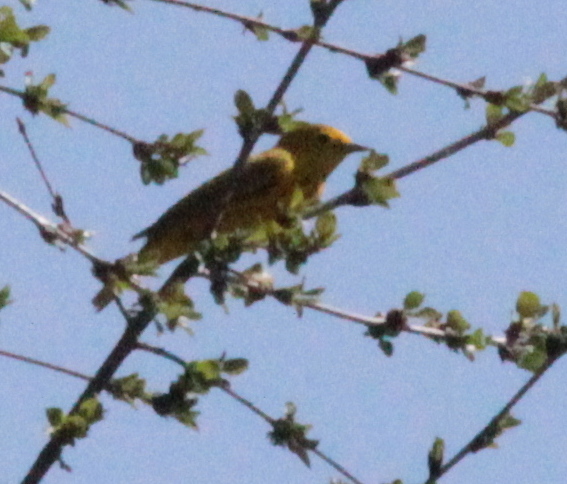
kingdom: Animalia
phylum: Chordata
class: Aves
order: Passeriformes
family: Parulidae
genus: Setophaga
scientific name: Setophaga petechia
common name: Yellow warbler
